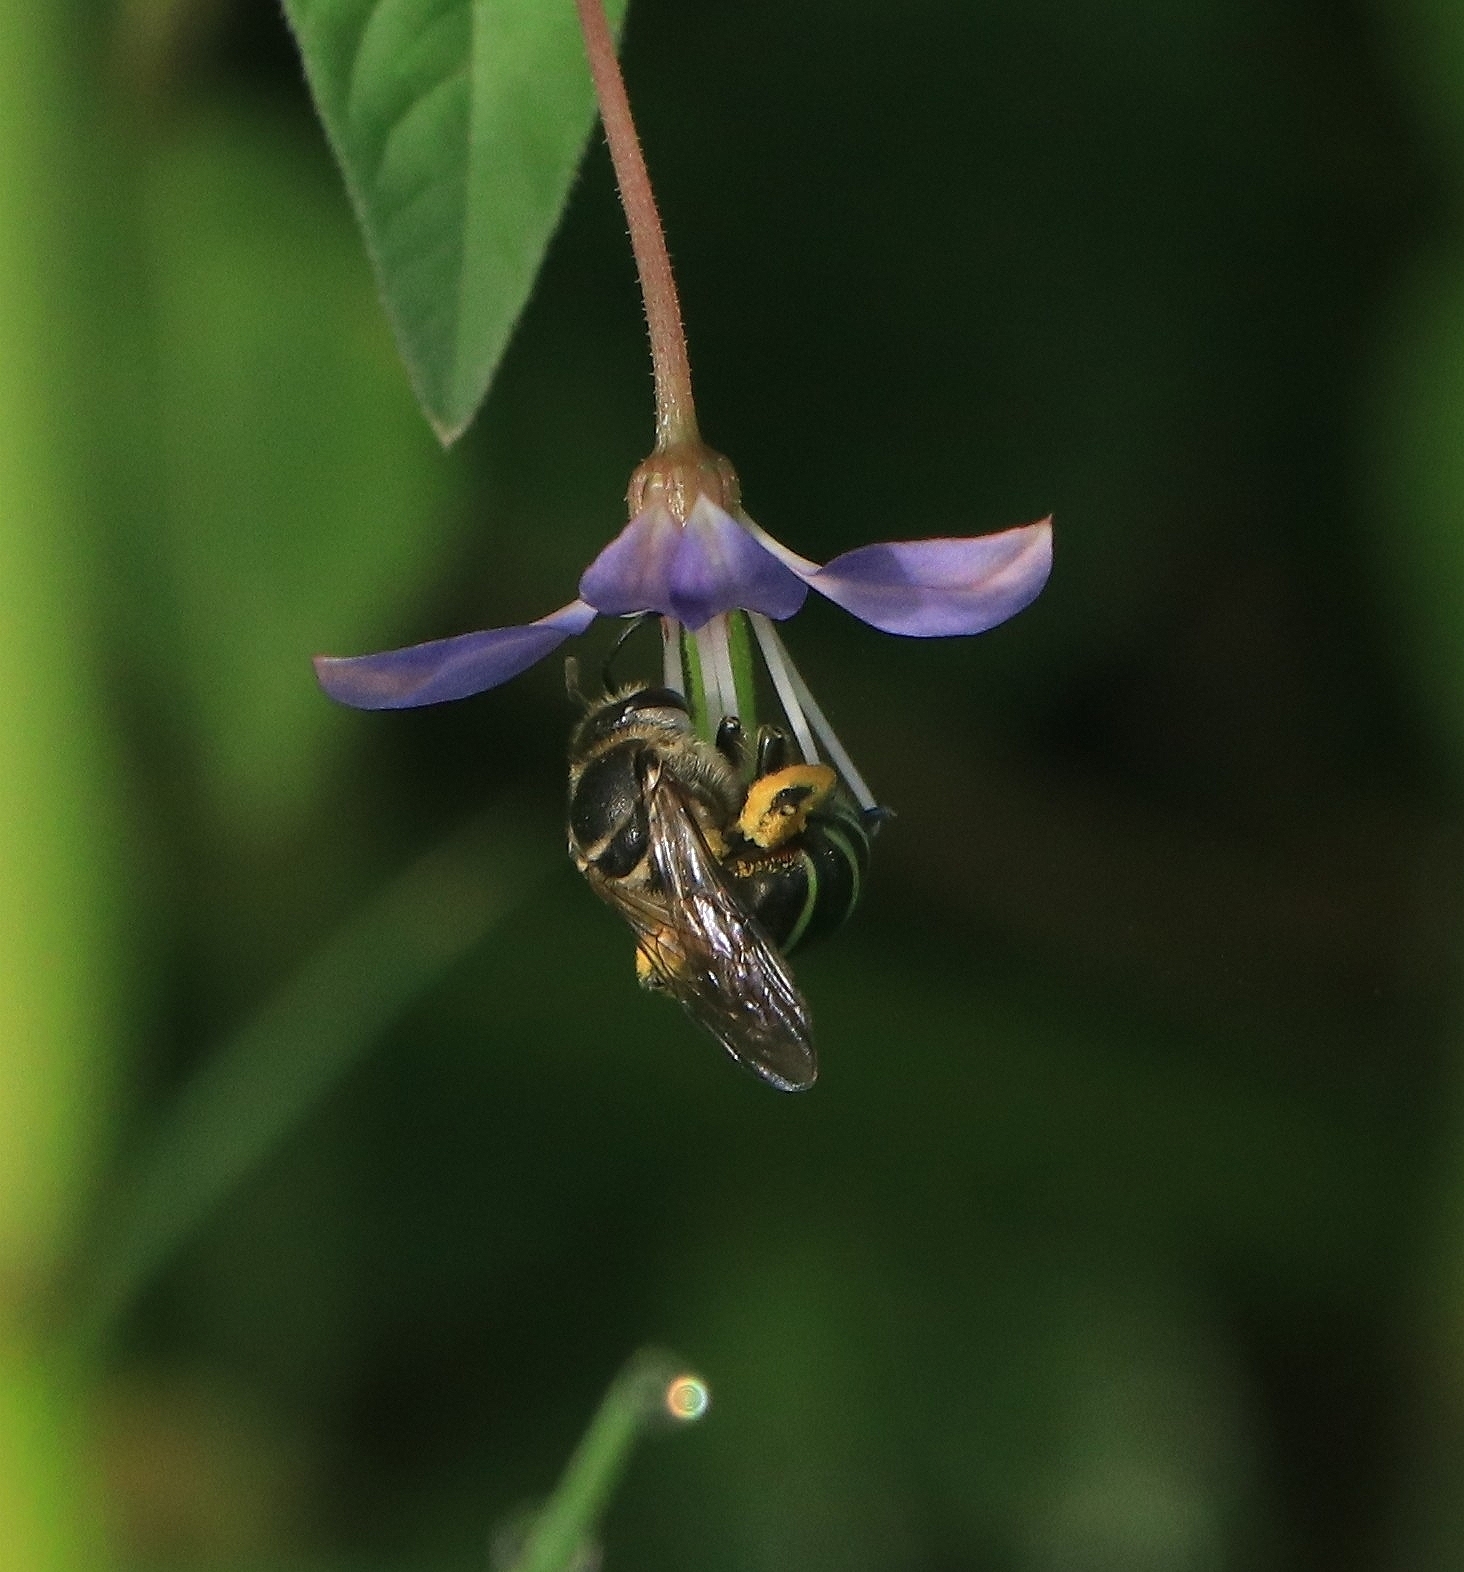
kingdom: Animalia
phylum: Arthropoda
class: Insecta
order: Hymenoptera
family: Halictidae
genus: Nomia
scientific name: Nomia ellioti
